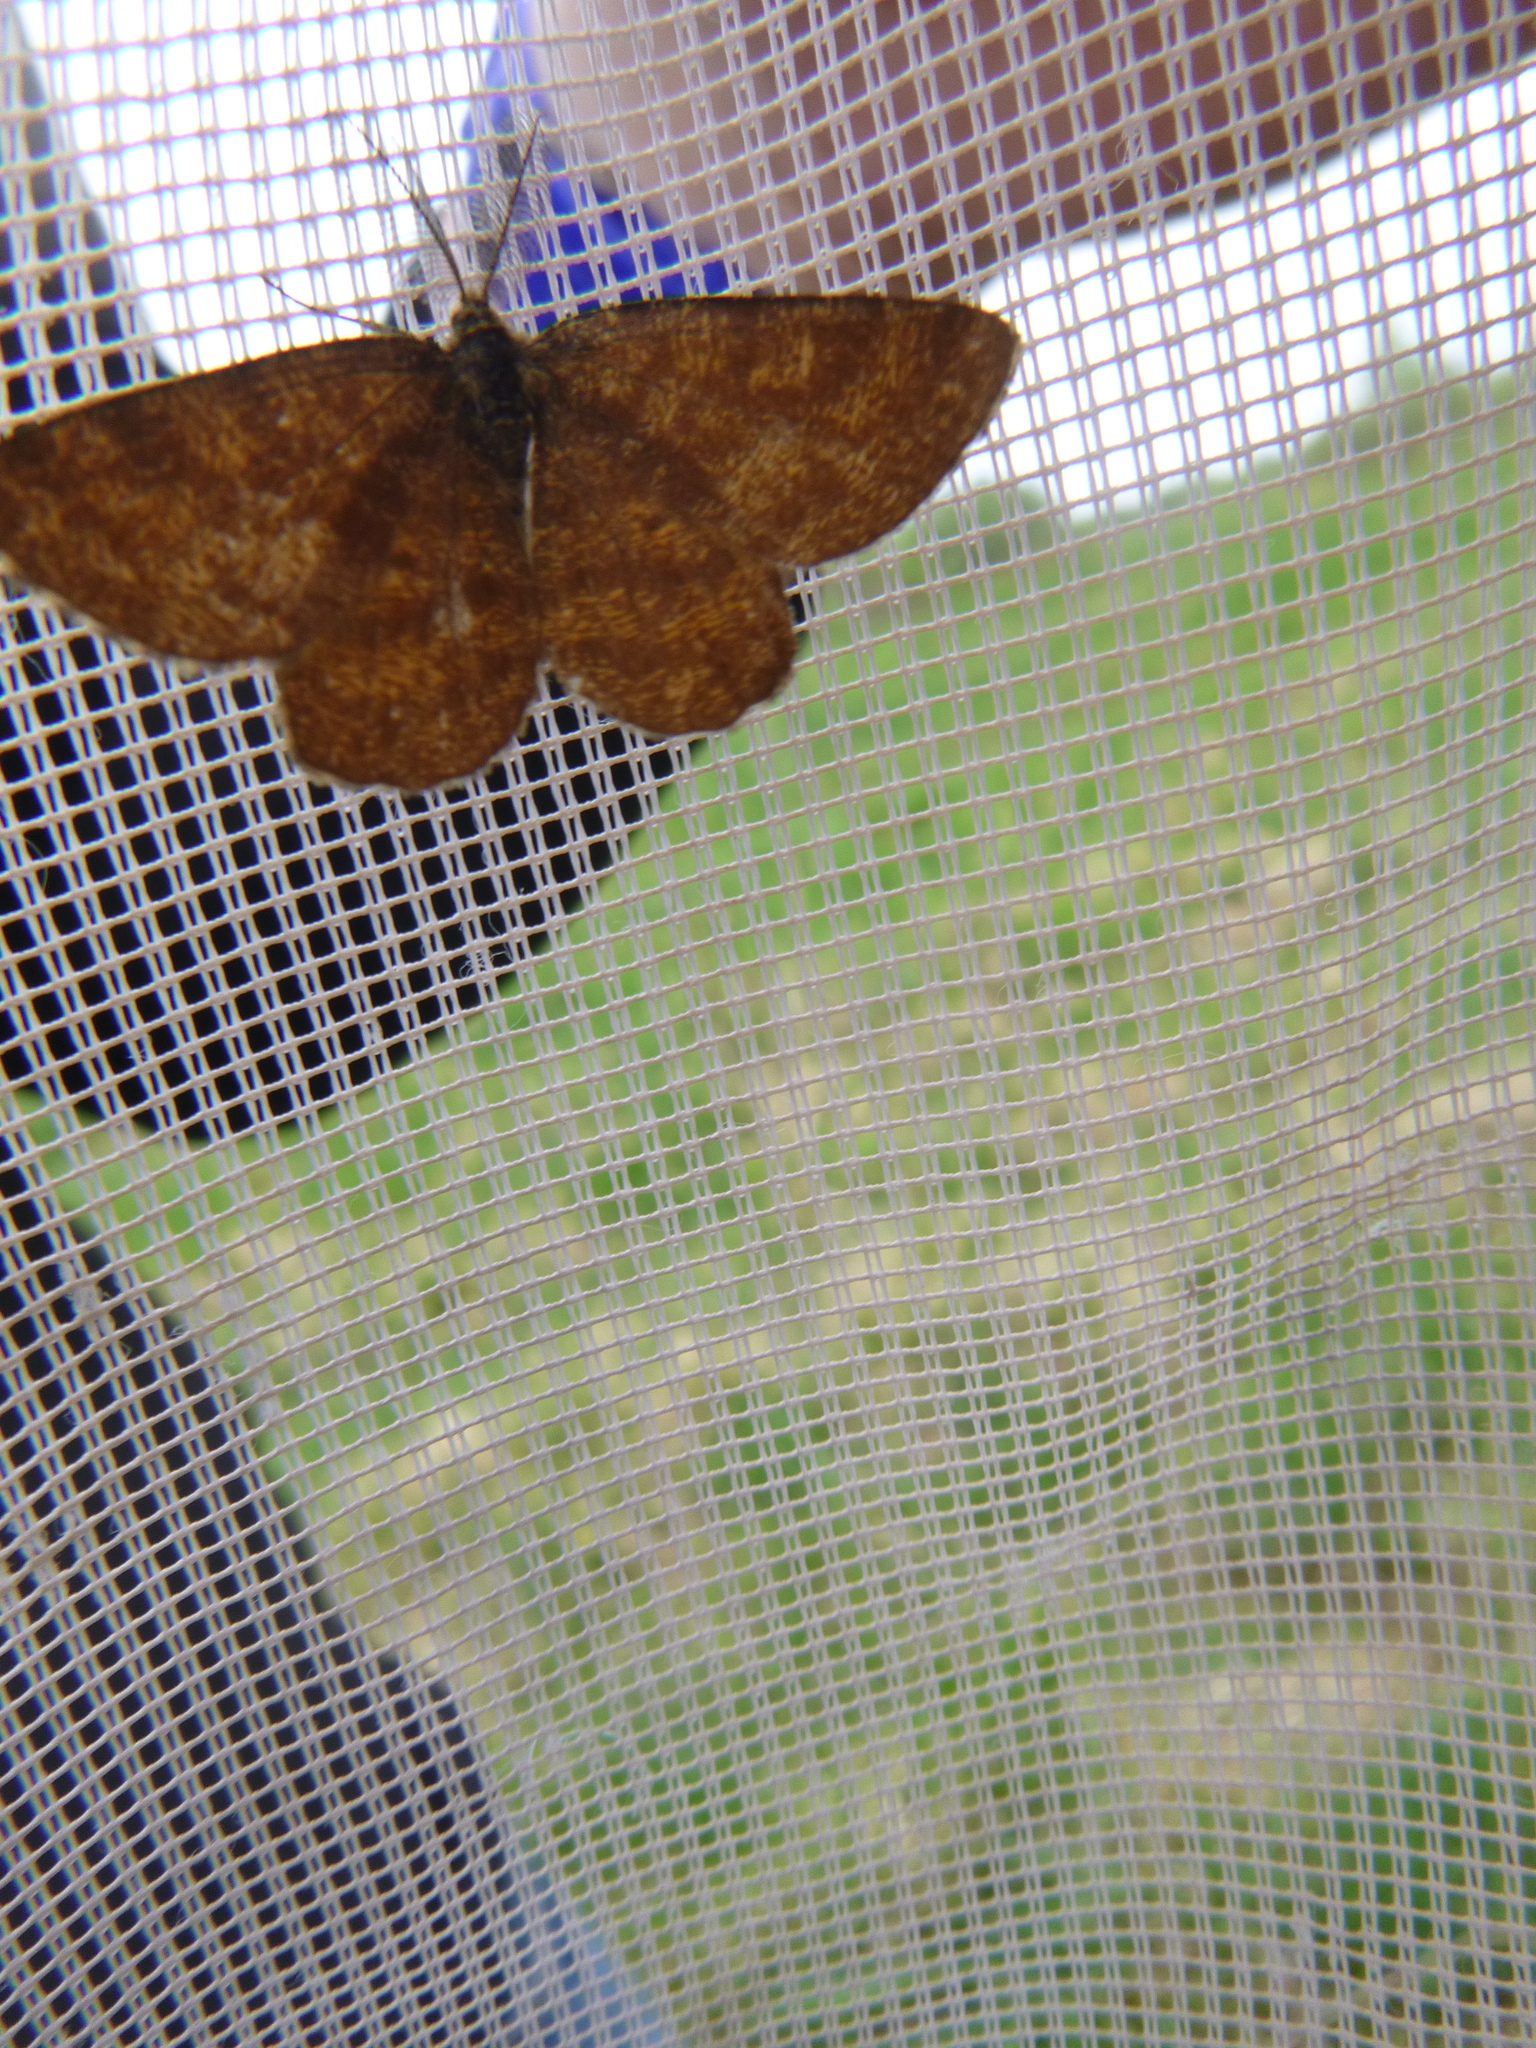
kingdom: Animalia
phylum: Arthropoda
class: Insecta
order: Lepidoptera
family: Geometridae
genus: Ematurga
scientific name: Ematurga atomaria
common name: Common heath
